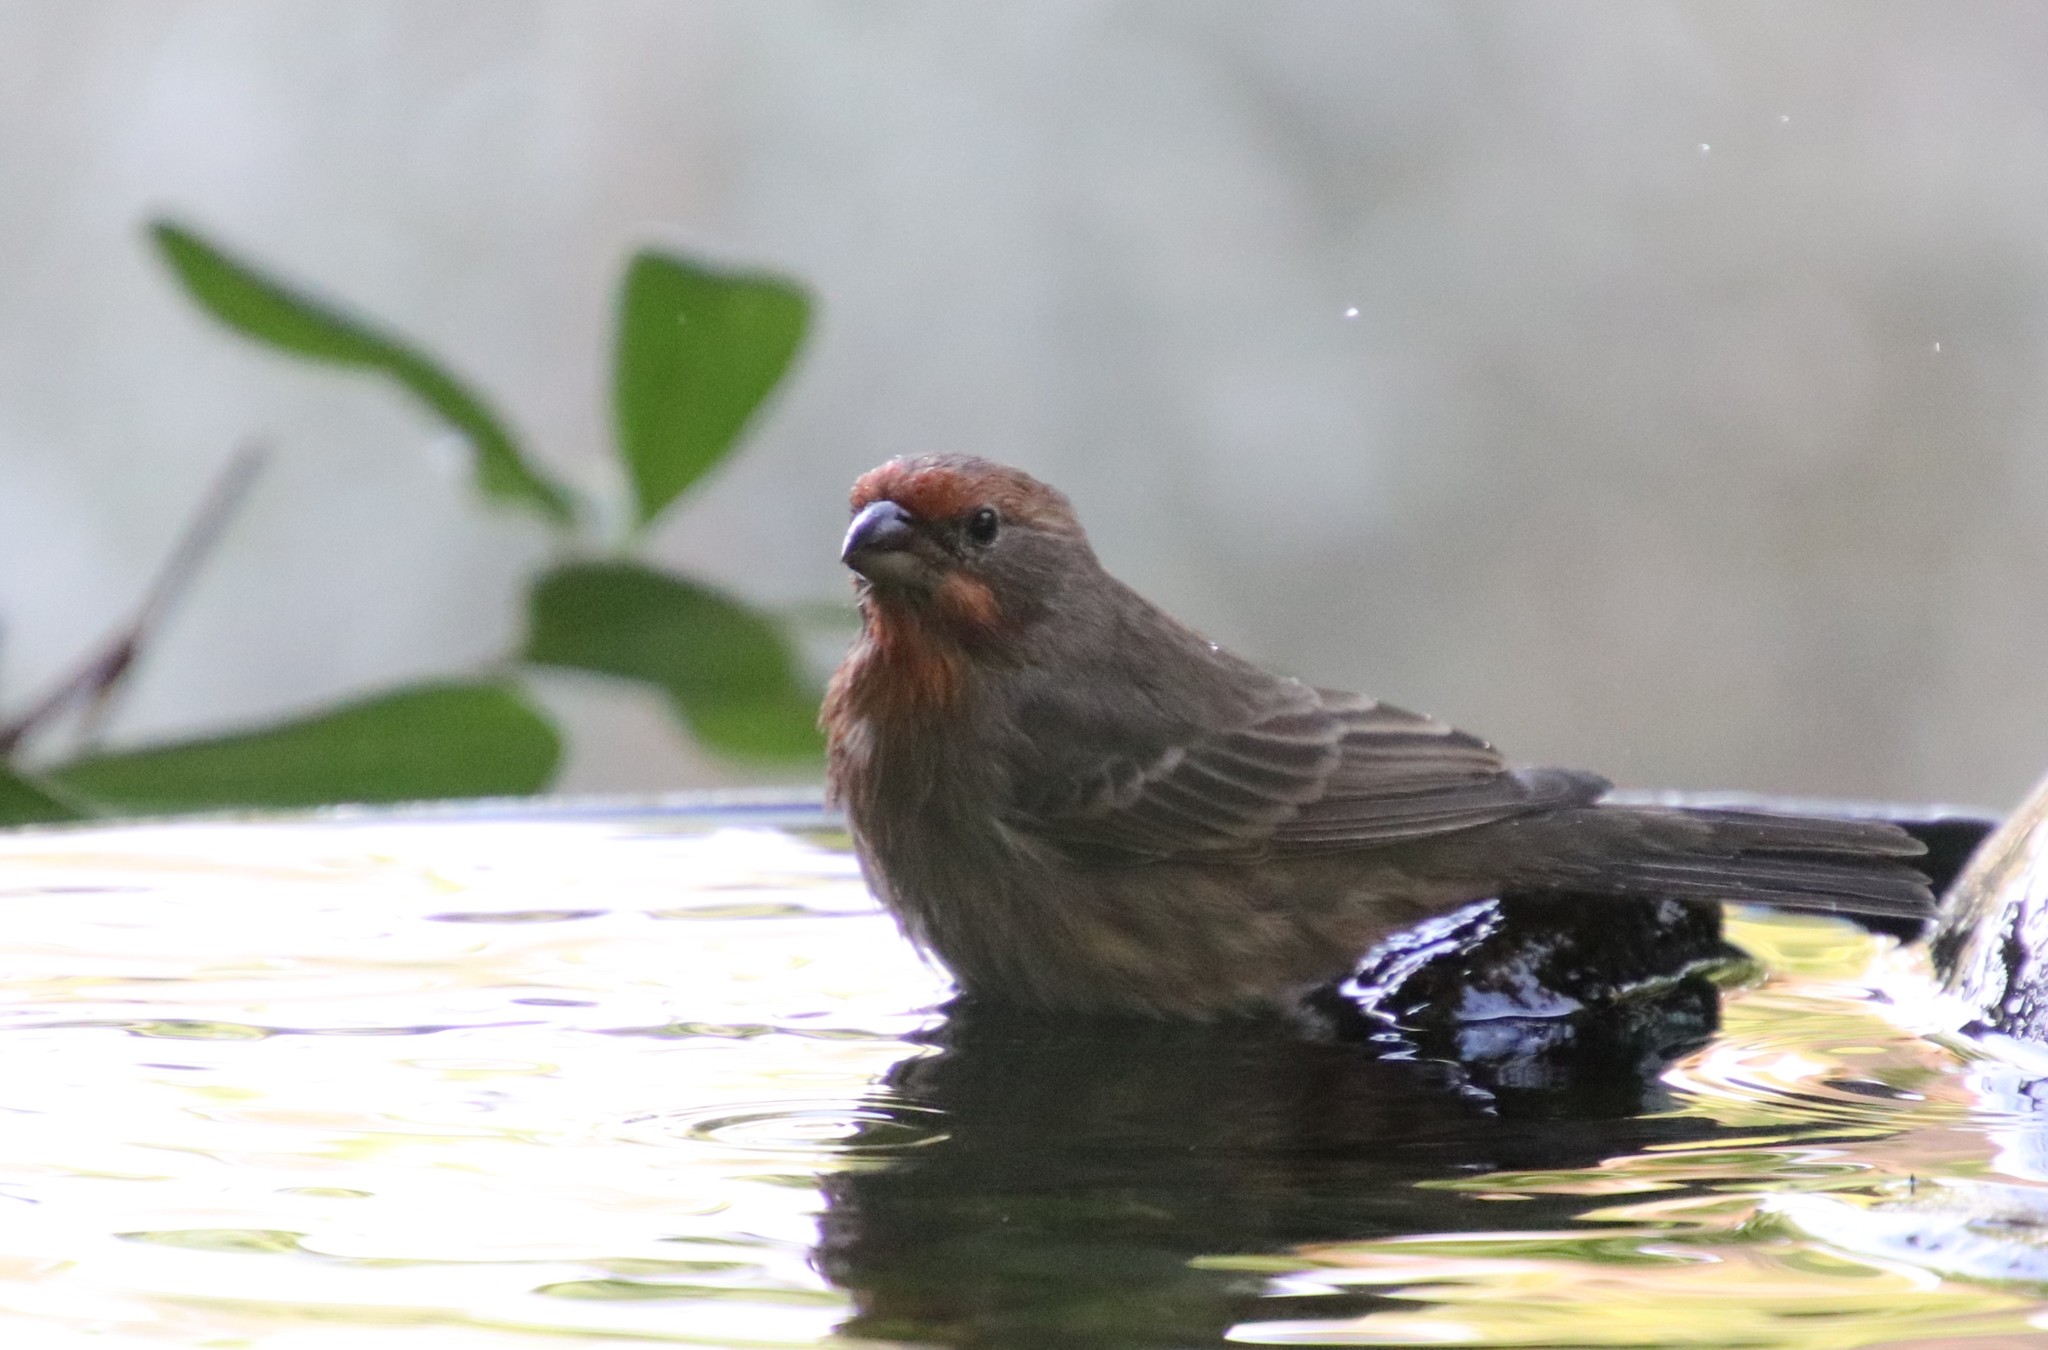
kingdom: Animalia
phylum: Chordata
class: Aves
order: Passeriformes
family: Fringillidae
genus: Haemorhous
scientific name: Haemorhous mexicanus
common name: House finch
